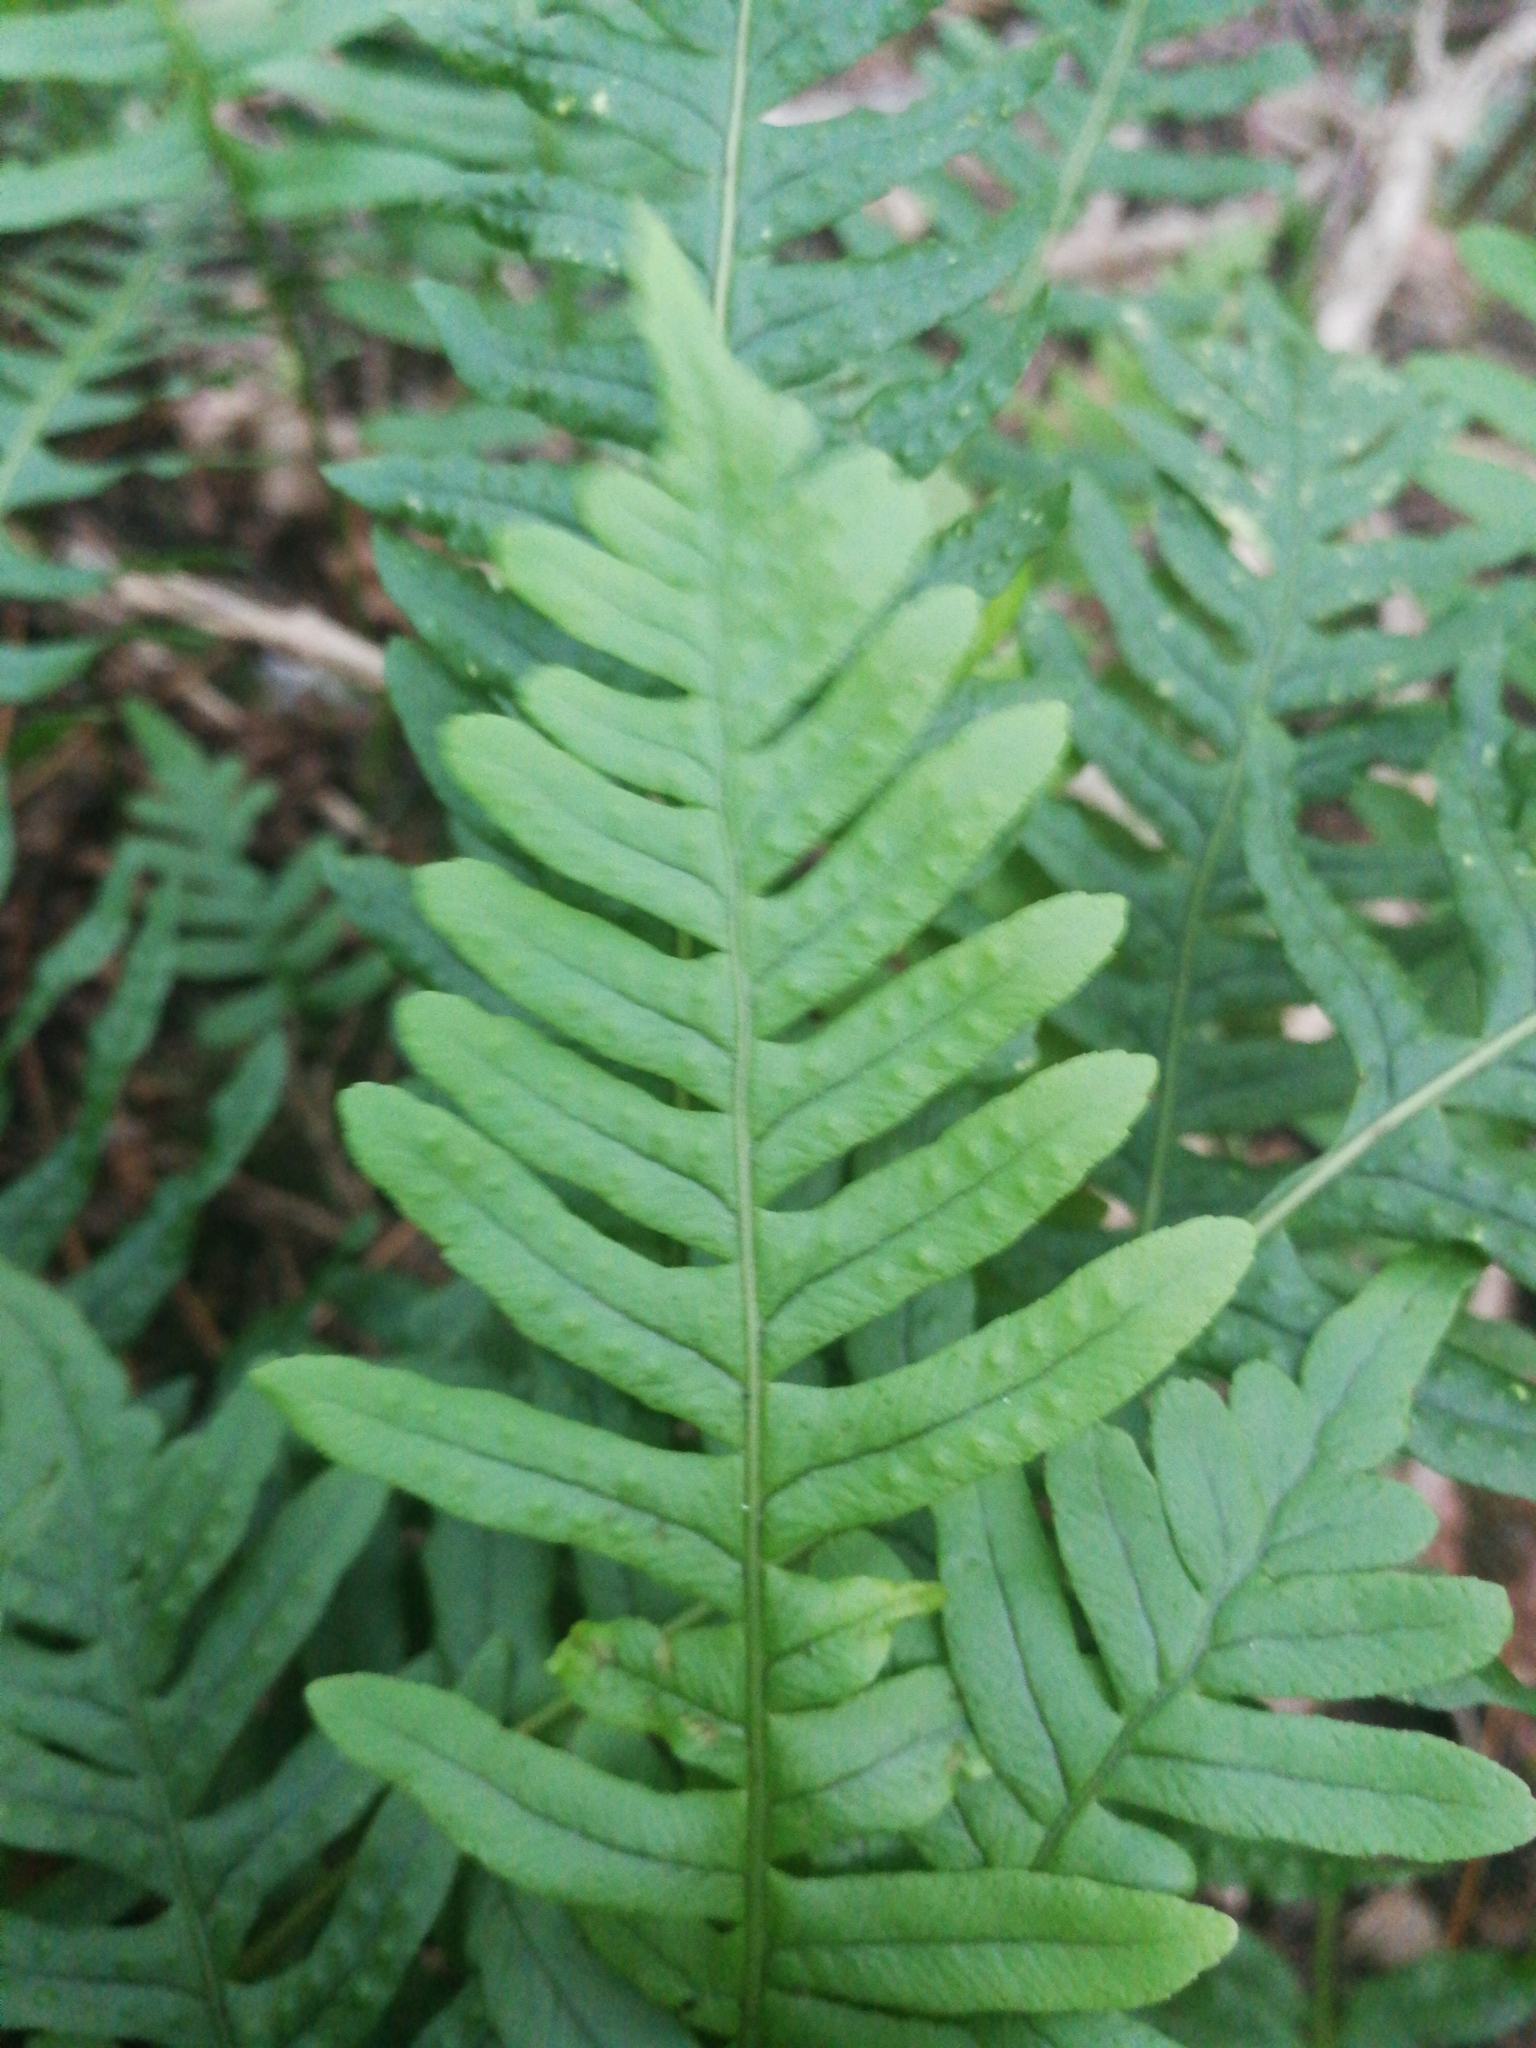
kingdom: Plantae
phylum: Tracheophyta
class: Polypodiopsida
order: Polypodiales
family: Polypodiaceae
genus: Polypodium
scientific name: Polypodium vulgare
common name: Common polypody
